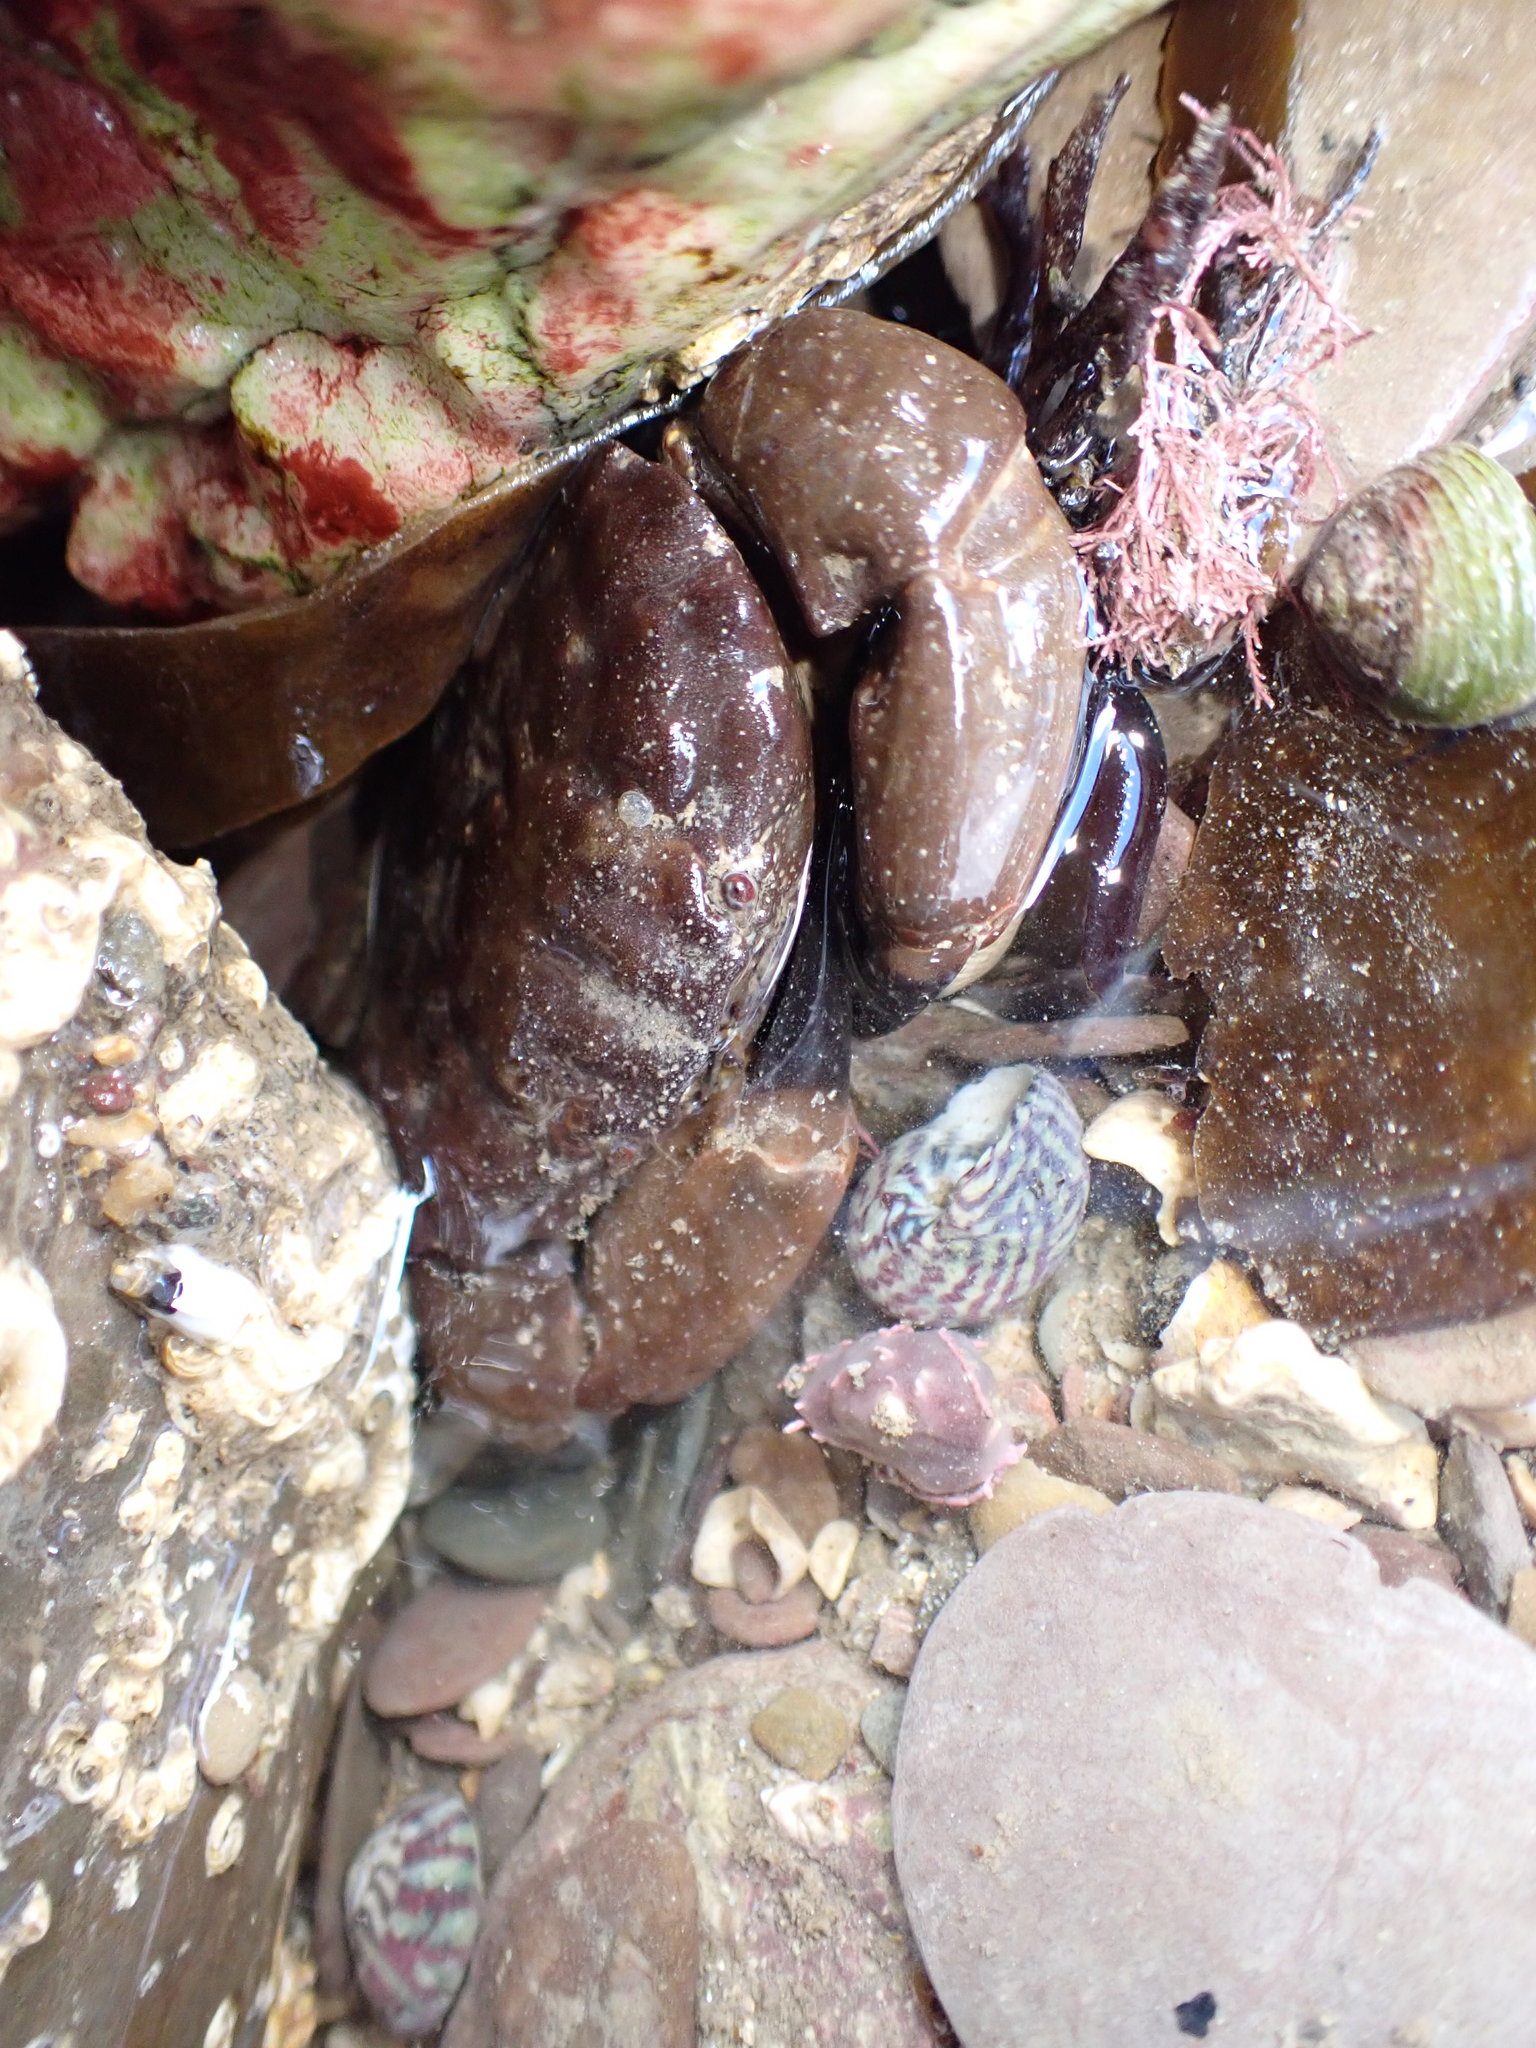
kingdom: Animalia
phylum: Arthropoda
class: Malacostraca
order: Decapoda
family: Xanthidae
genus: Xantho
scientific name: Xantho hydrophilus
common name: Montagu's crab
